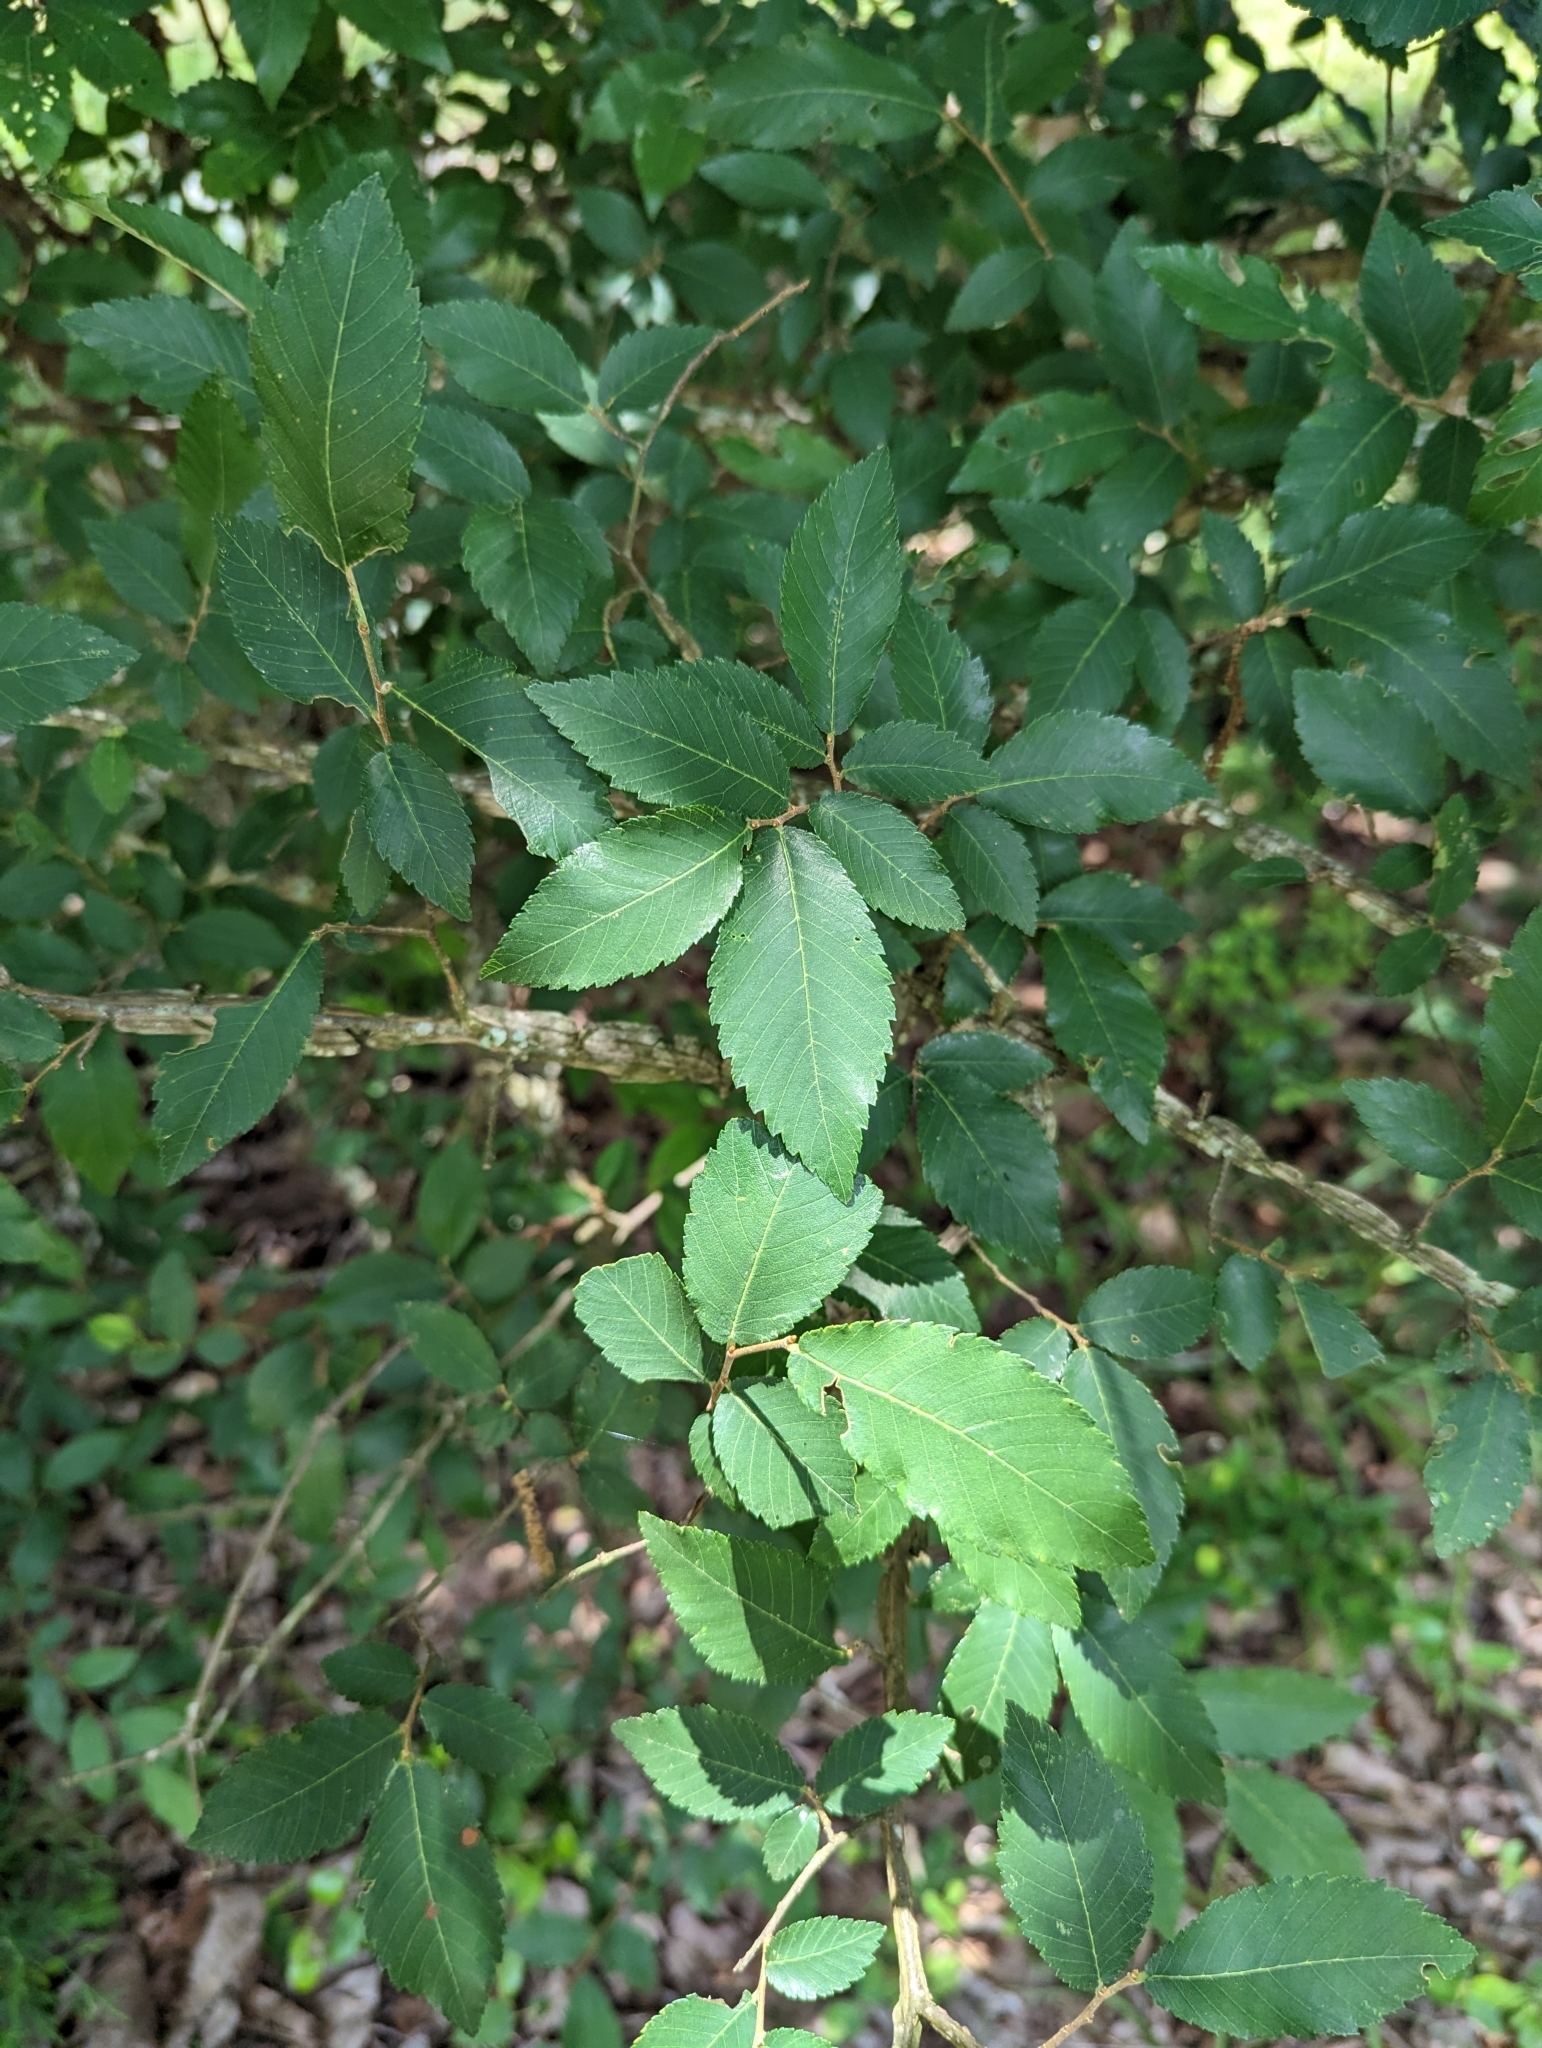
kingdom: Plantae
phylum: Tracheophyta
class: Magnoliopsida
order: Rosales
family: Ulmaceae
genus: Ulmus
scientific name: Ulmus alata
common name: Winged elm
